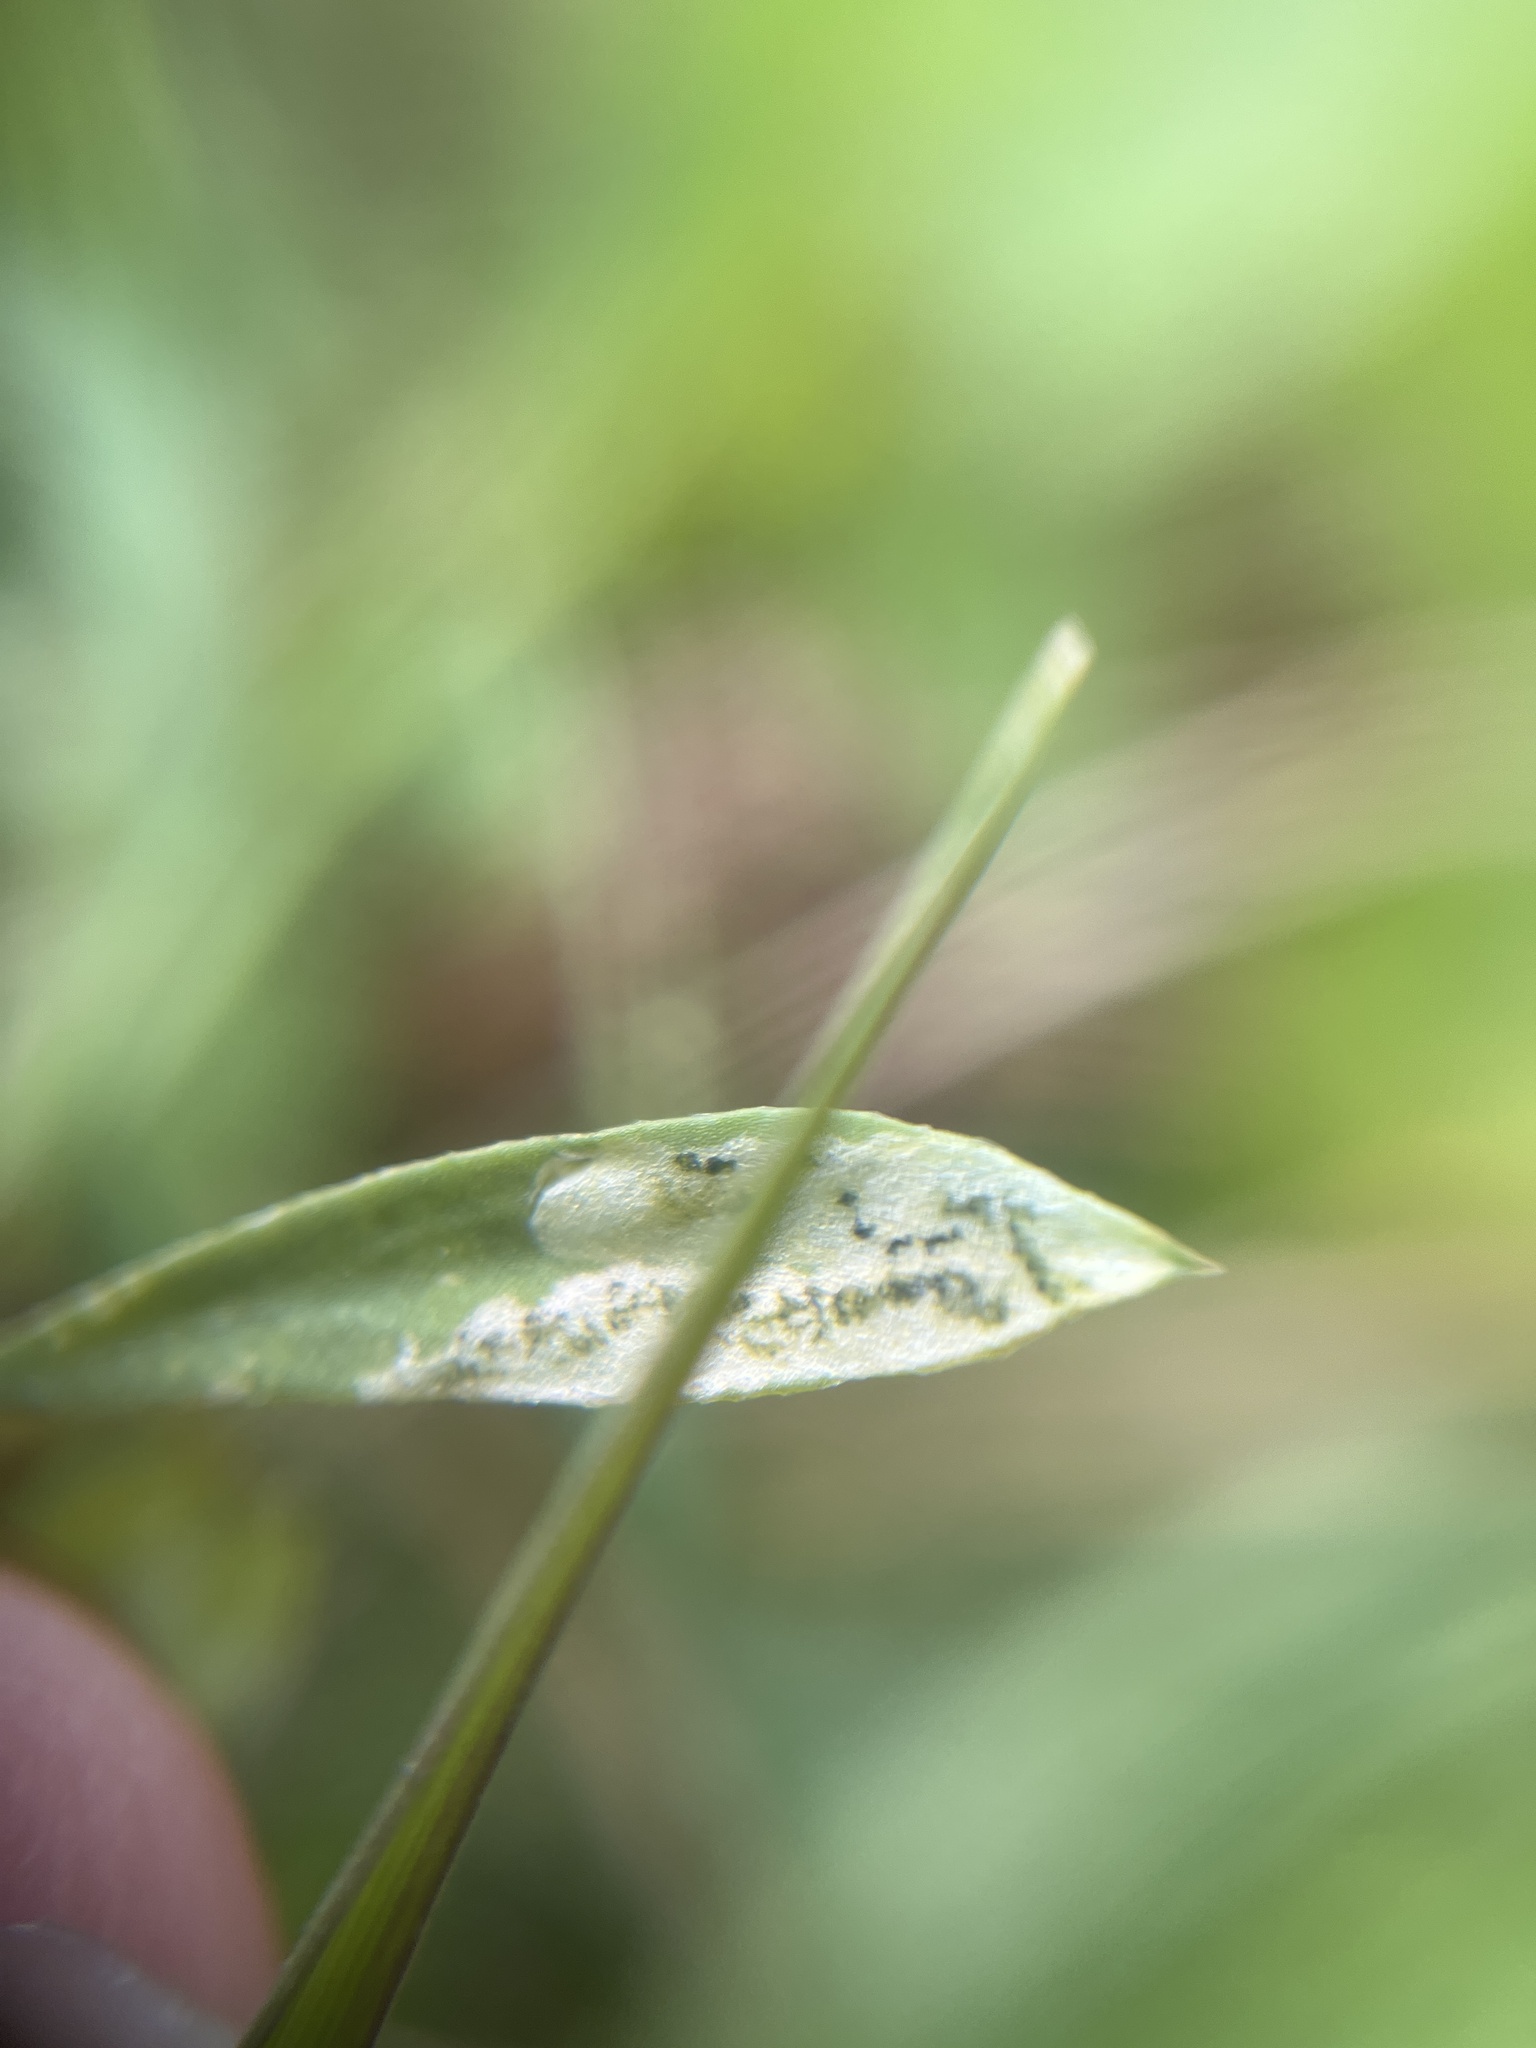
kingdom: Animalia
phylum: Arthropoda
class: Insecta
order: Diptera
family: Agromyzidae
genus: Liriomyza
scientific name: Liriomyza congesta
